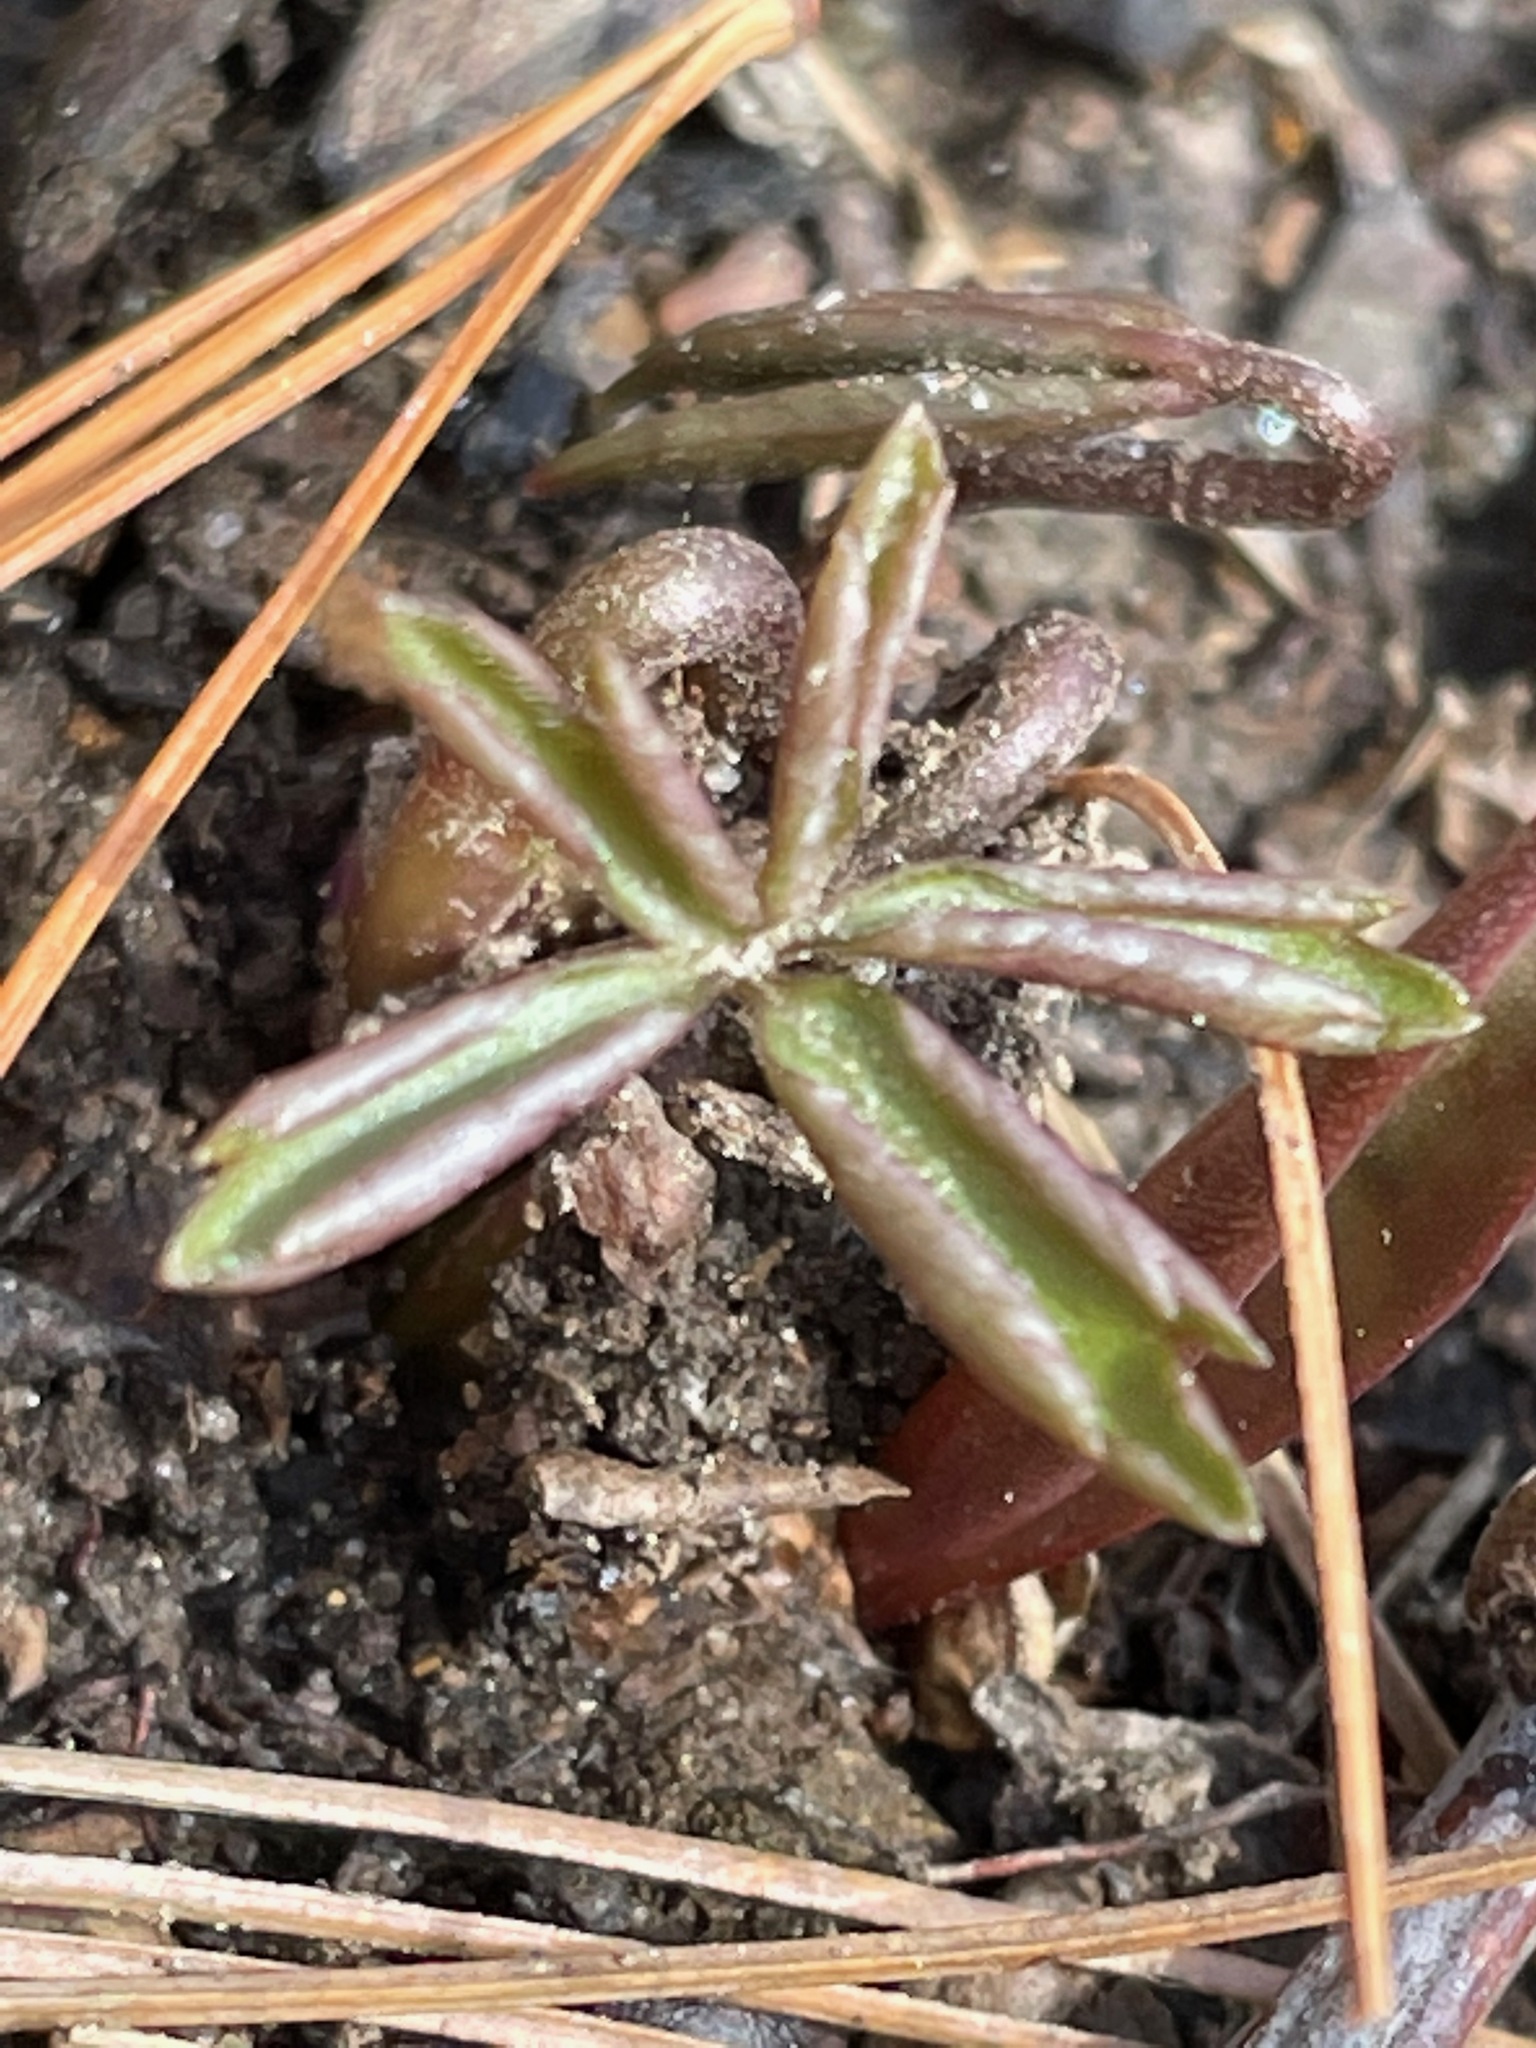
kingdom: Plantae
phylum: Tracheophyta
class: Magnoliopsida
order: Ranunculales
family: Ranunculaceae
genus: Anemone
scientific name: Anemone quinquefolia
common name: Wood anemone
